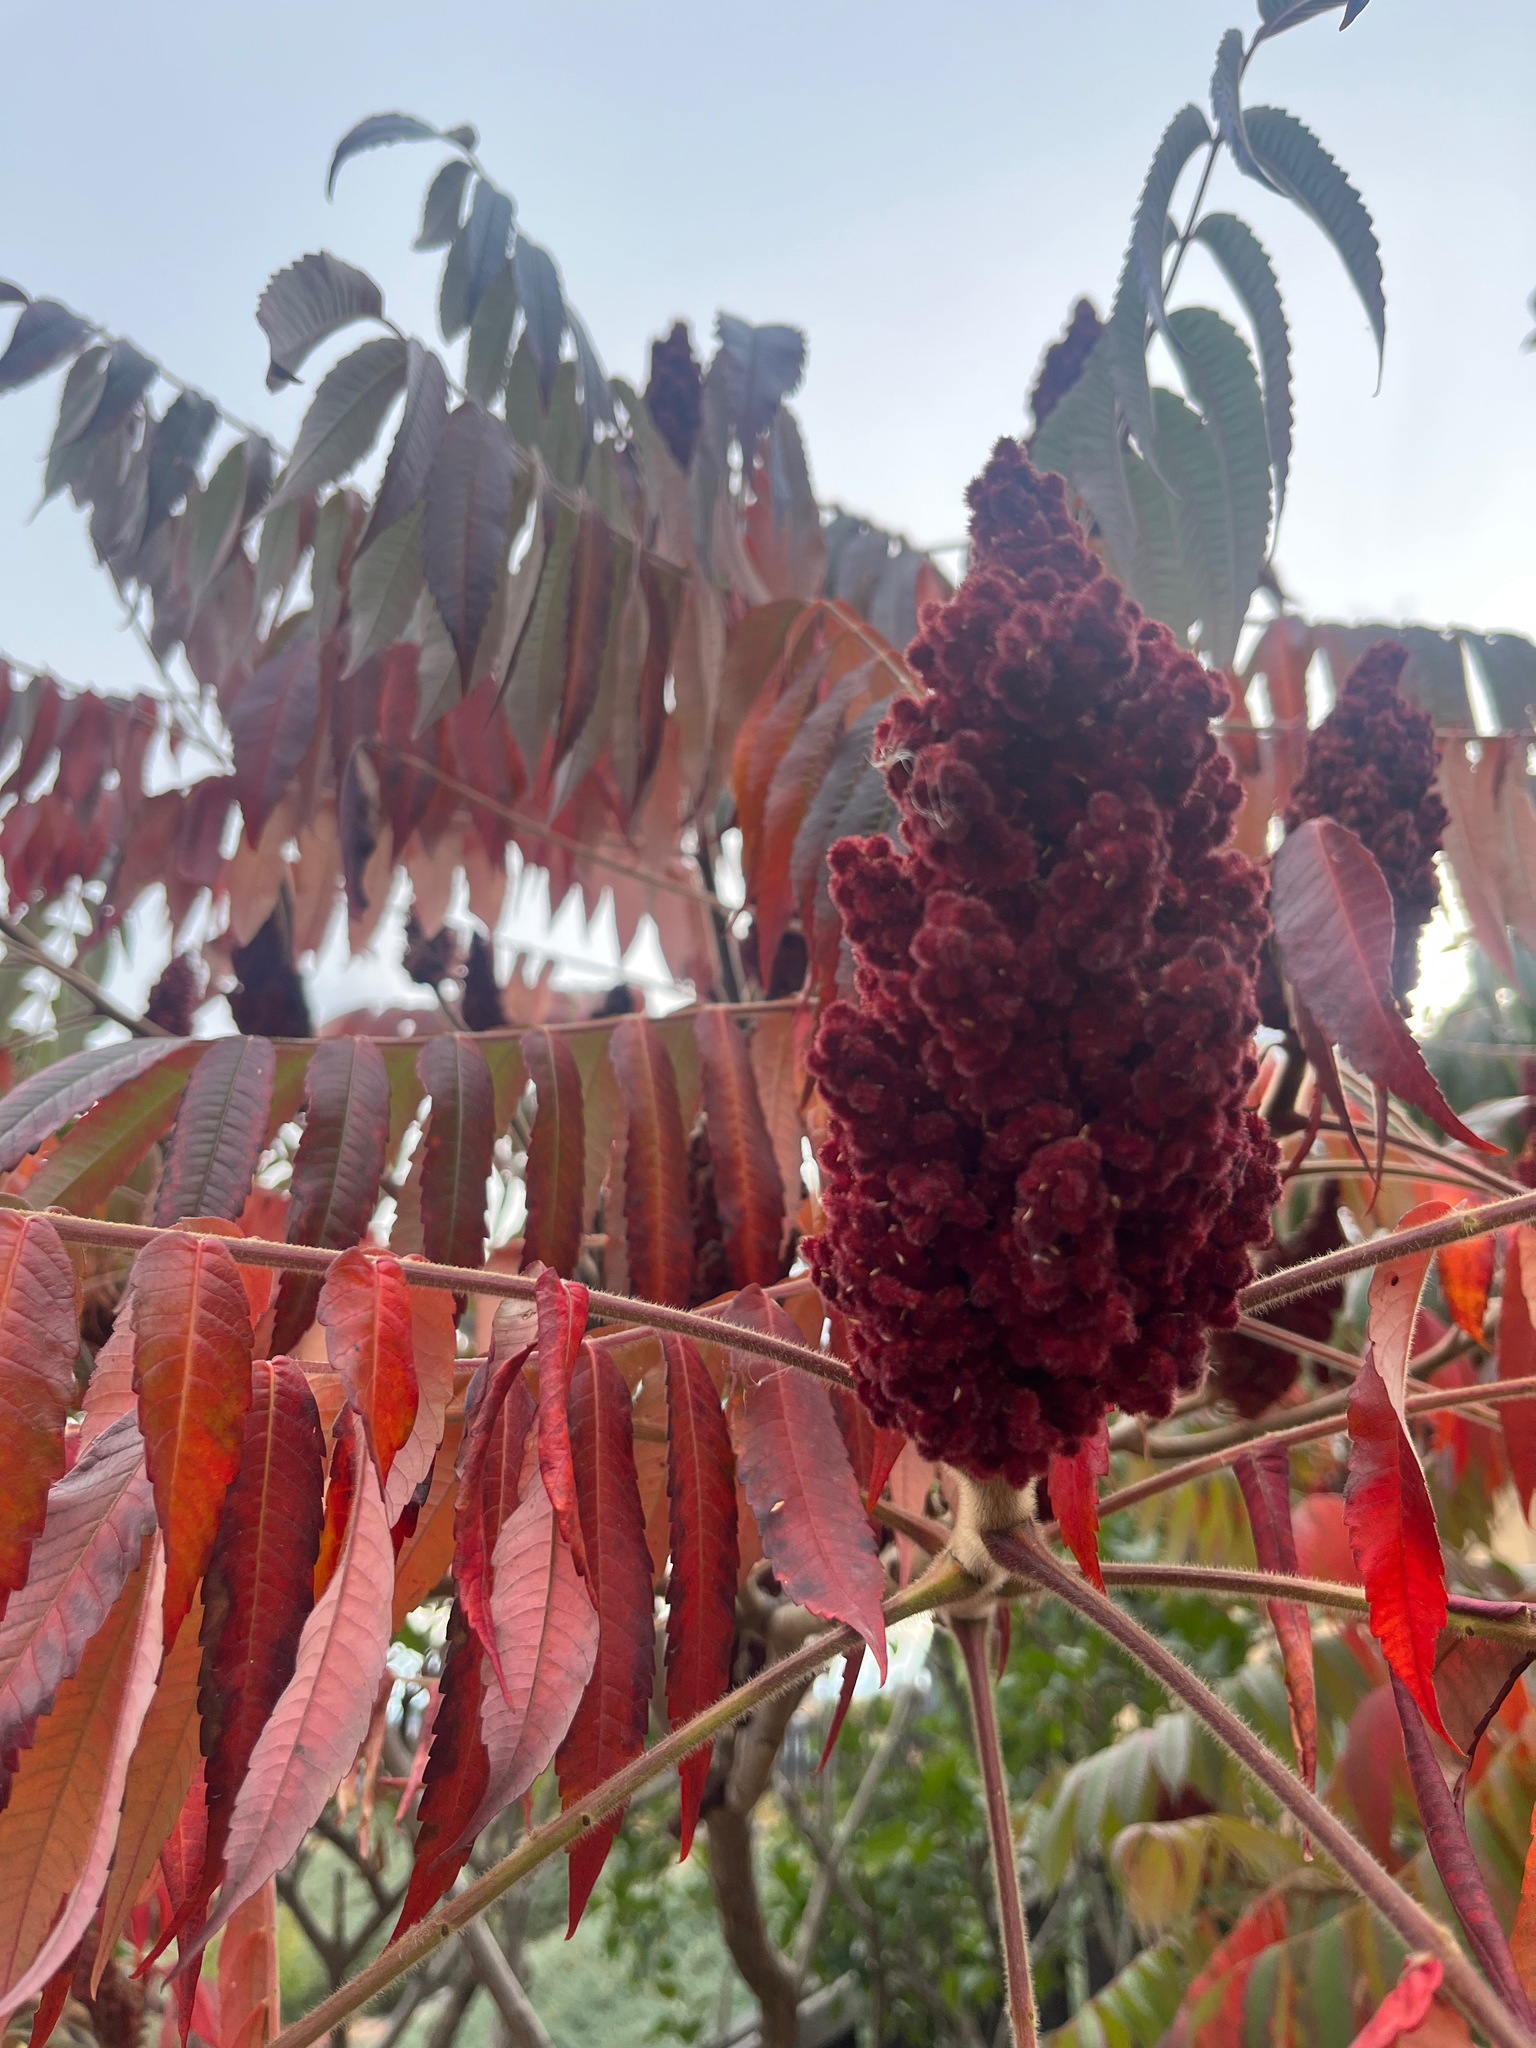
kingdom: Plantae
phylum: Tracheophyta
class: Magnoliopsida
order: Sapindales
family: Anacardiaceae
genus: Rhus
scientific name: Rhus typhina
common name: Staghorn sumac
